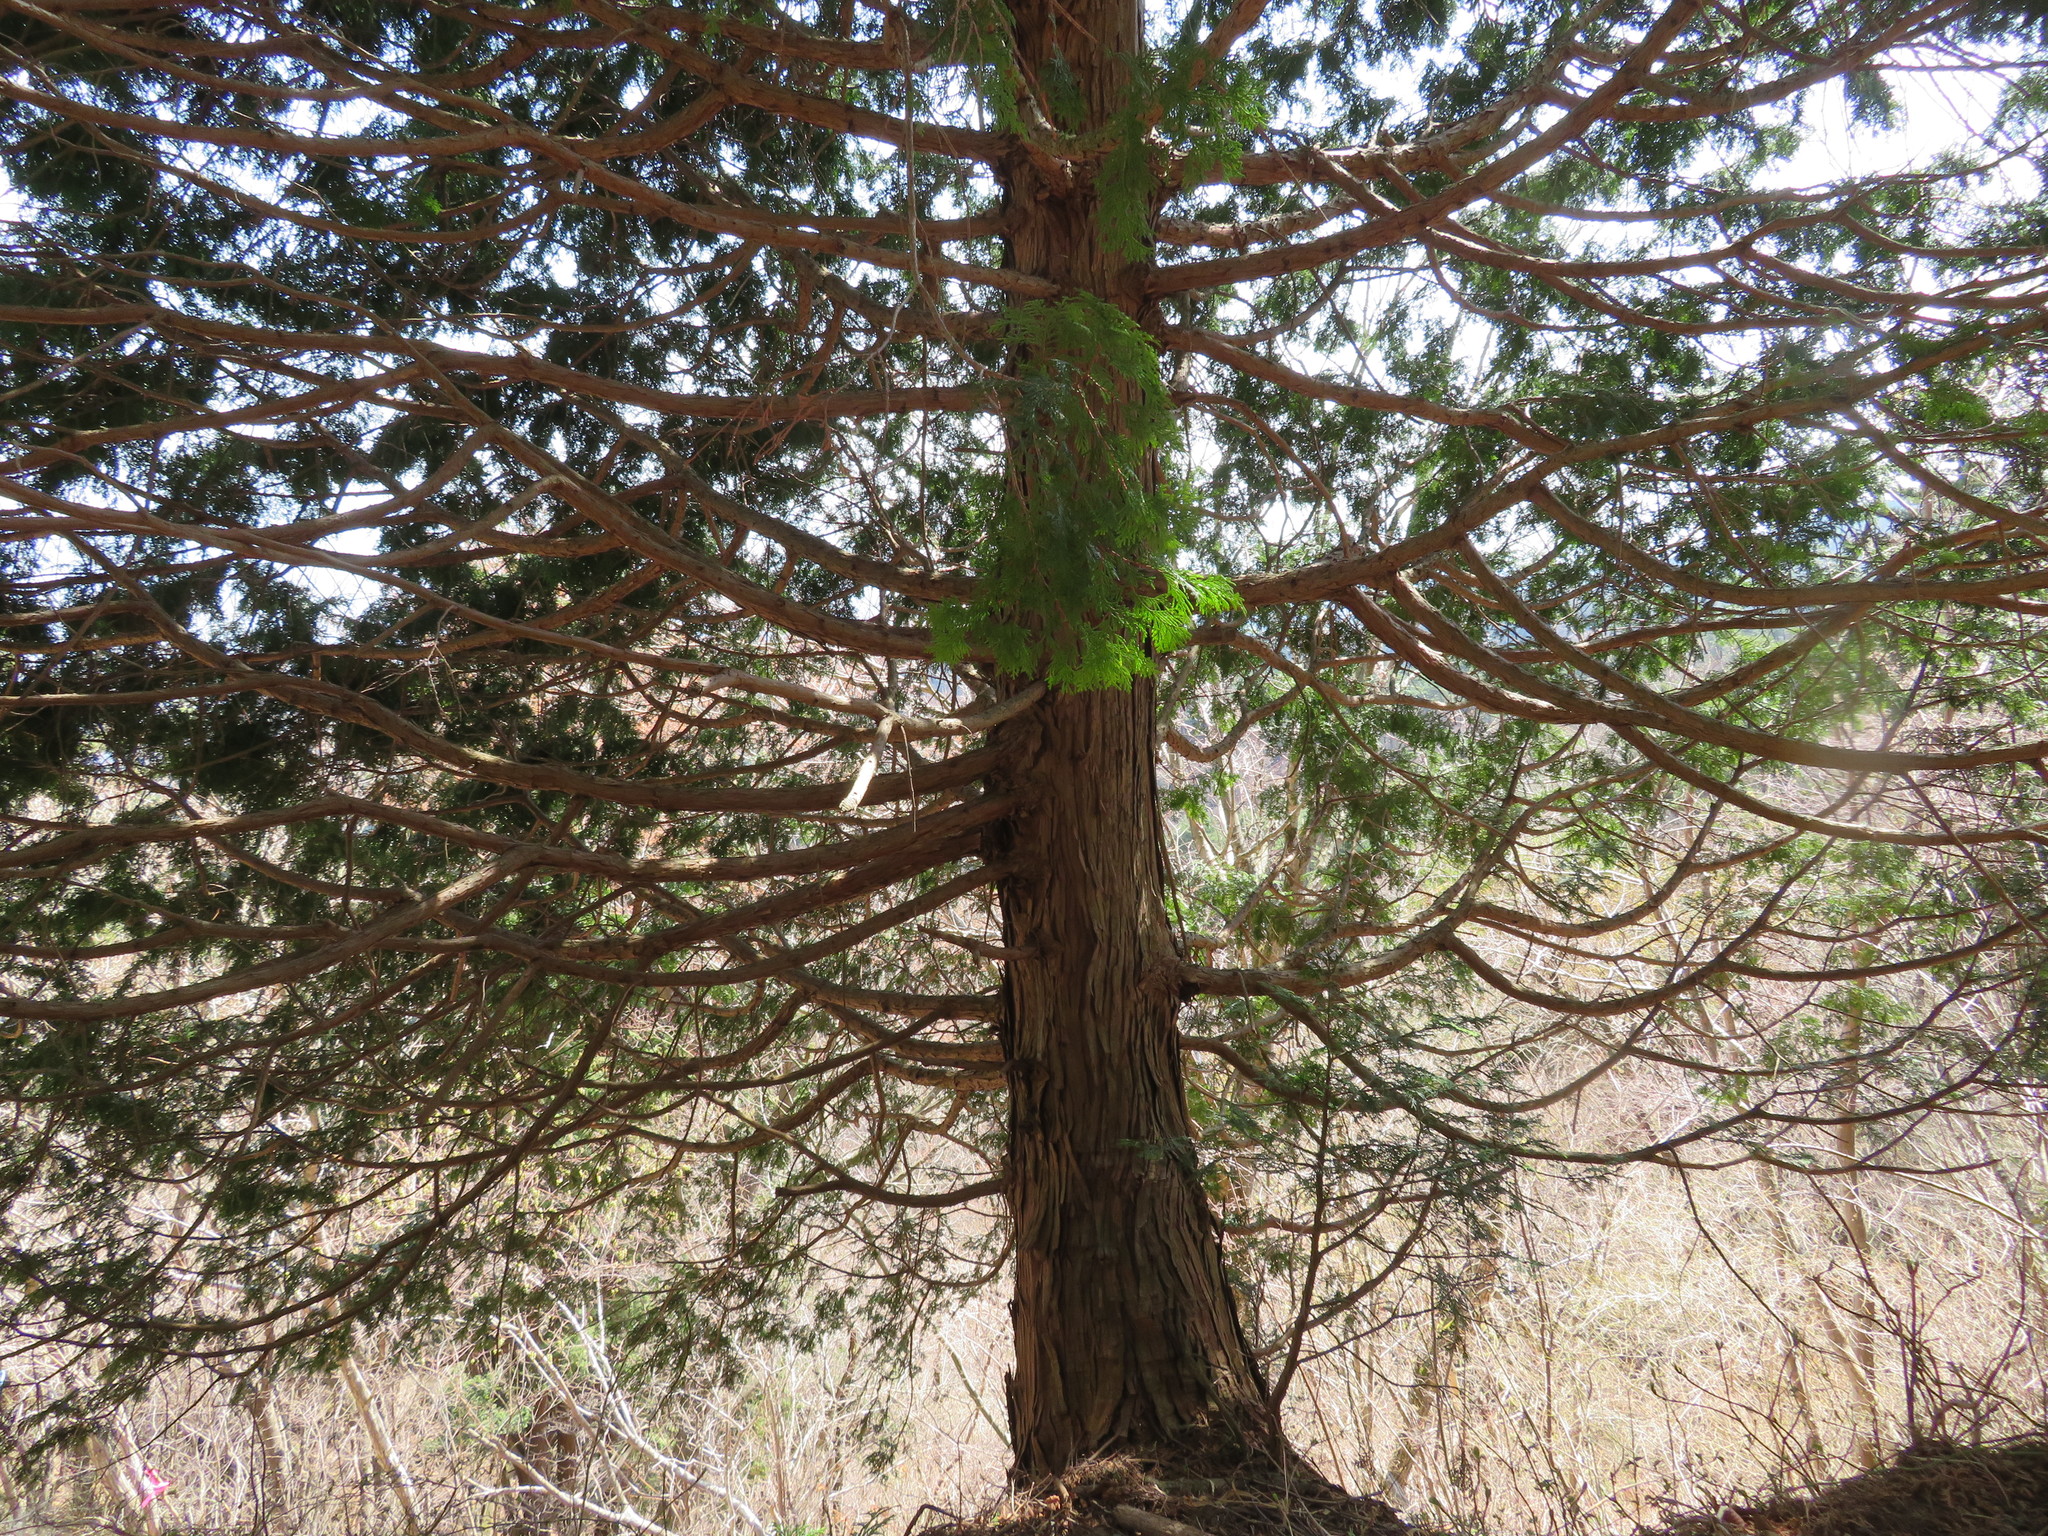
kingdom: Plantae
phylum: Tracheophyta
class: Pinopsida
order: Pinales
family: Cupressaceae
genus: Chamaecyparis
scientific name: Chamaecyparis obtusa
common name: Hinoki false cypress
